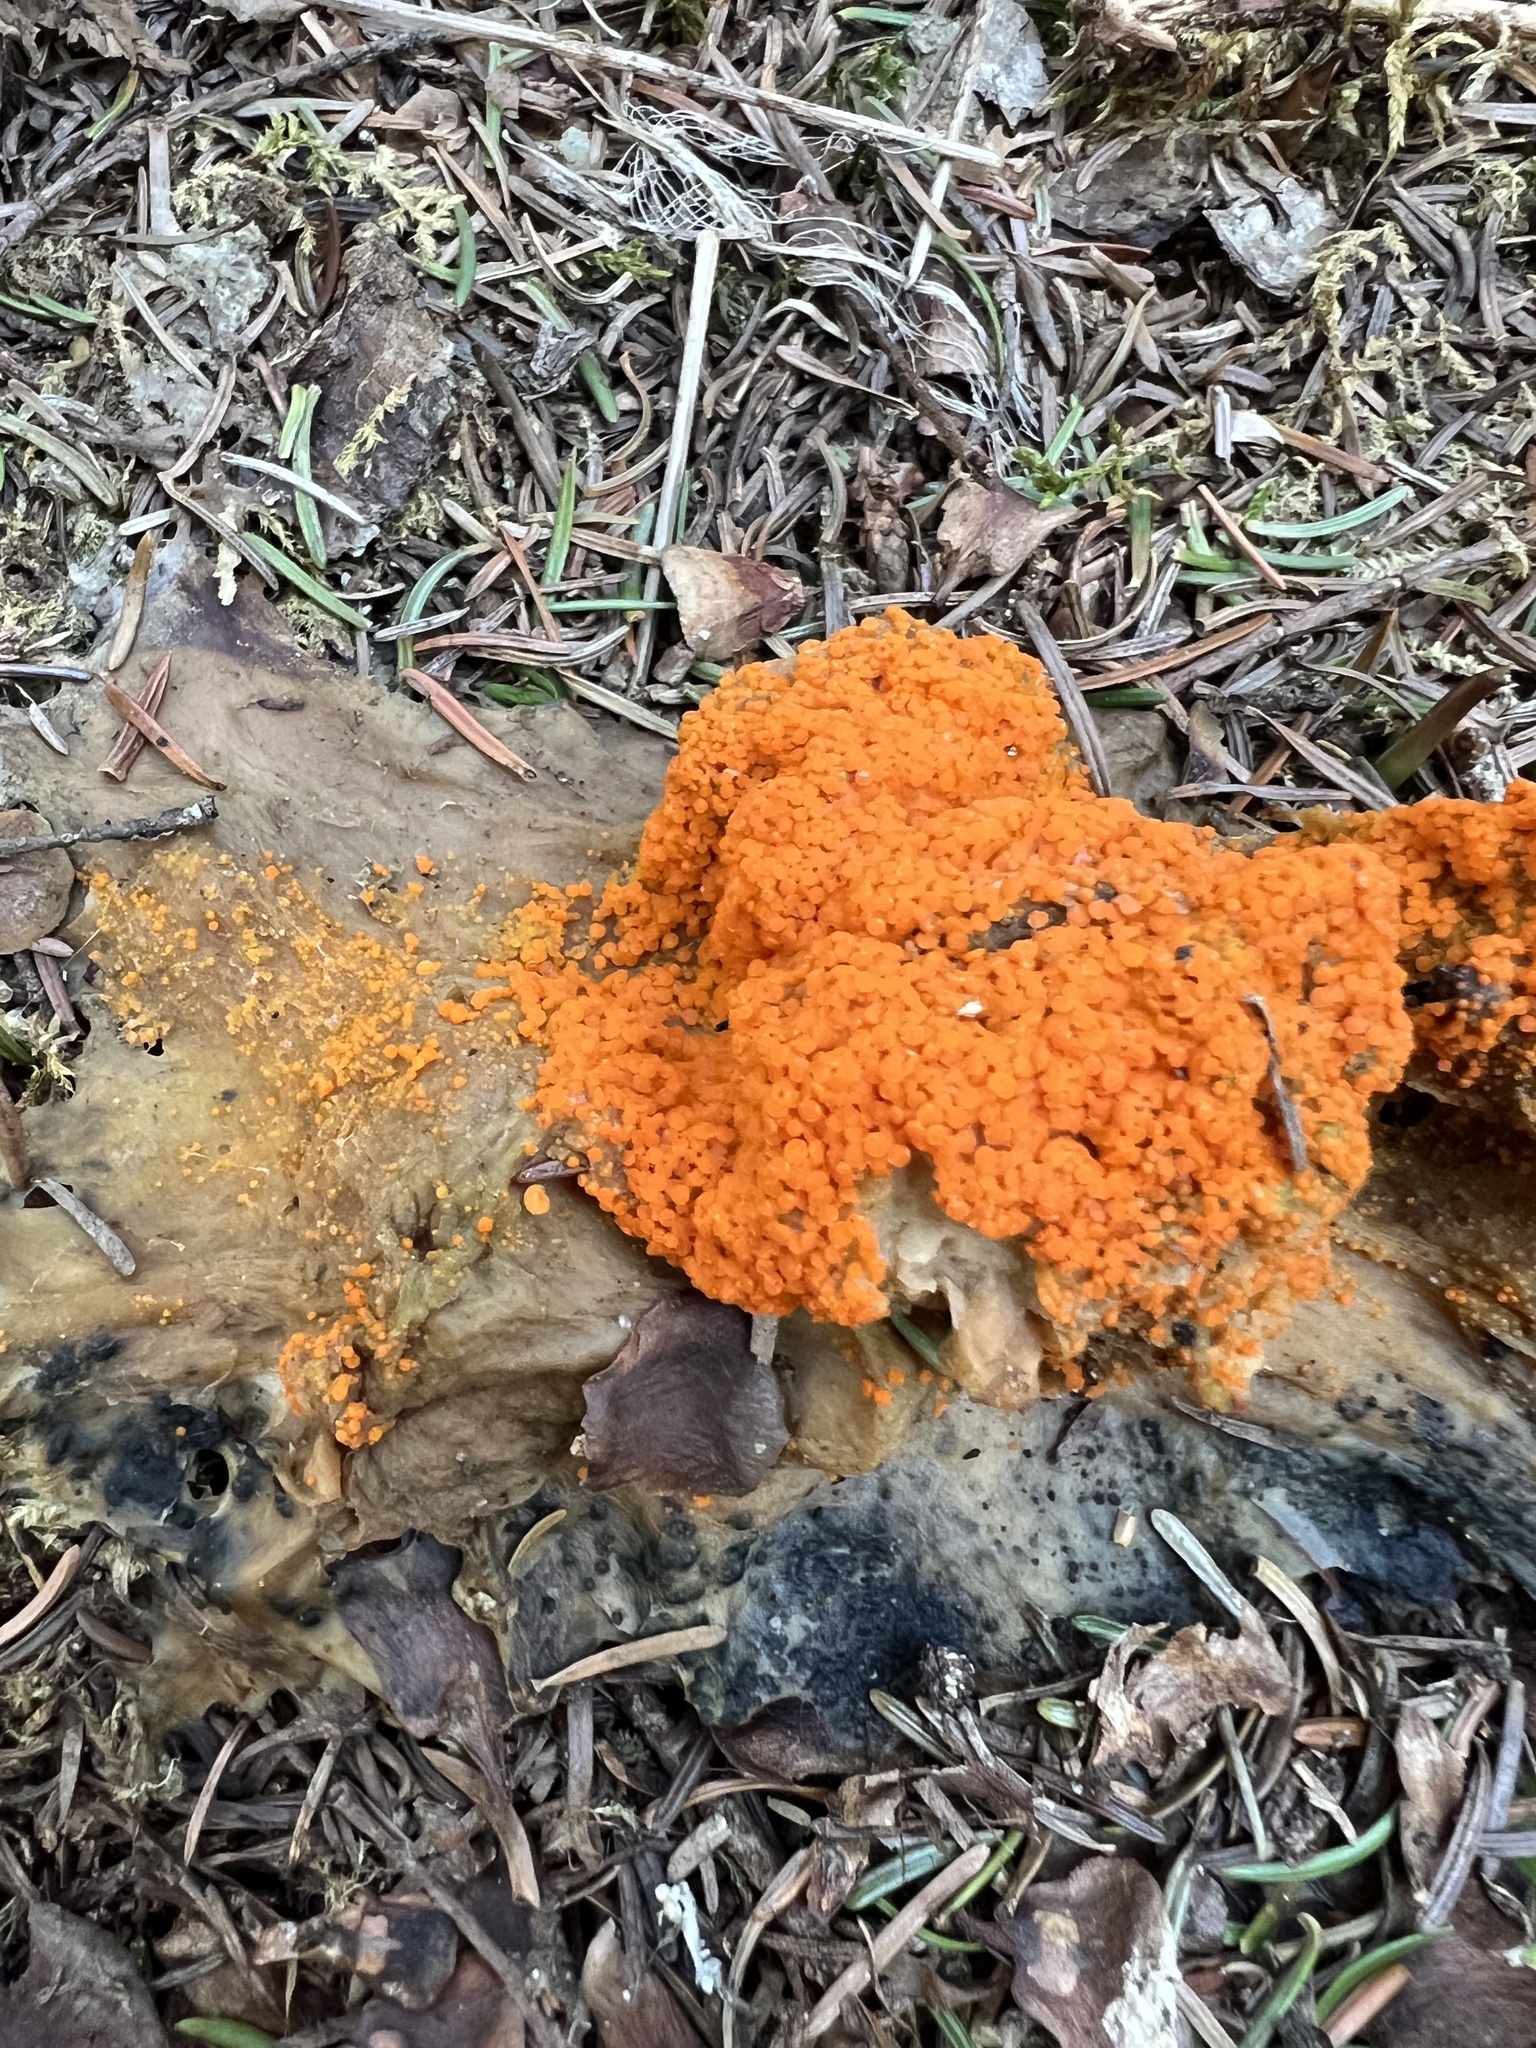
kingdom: Fungi
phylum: Ascomycota
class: Pezizomycetes
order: Pezizales
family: Pyronemataceae
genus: Byssonectria
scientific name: Byssonectria terrestris
